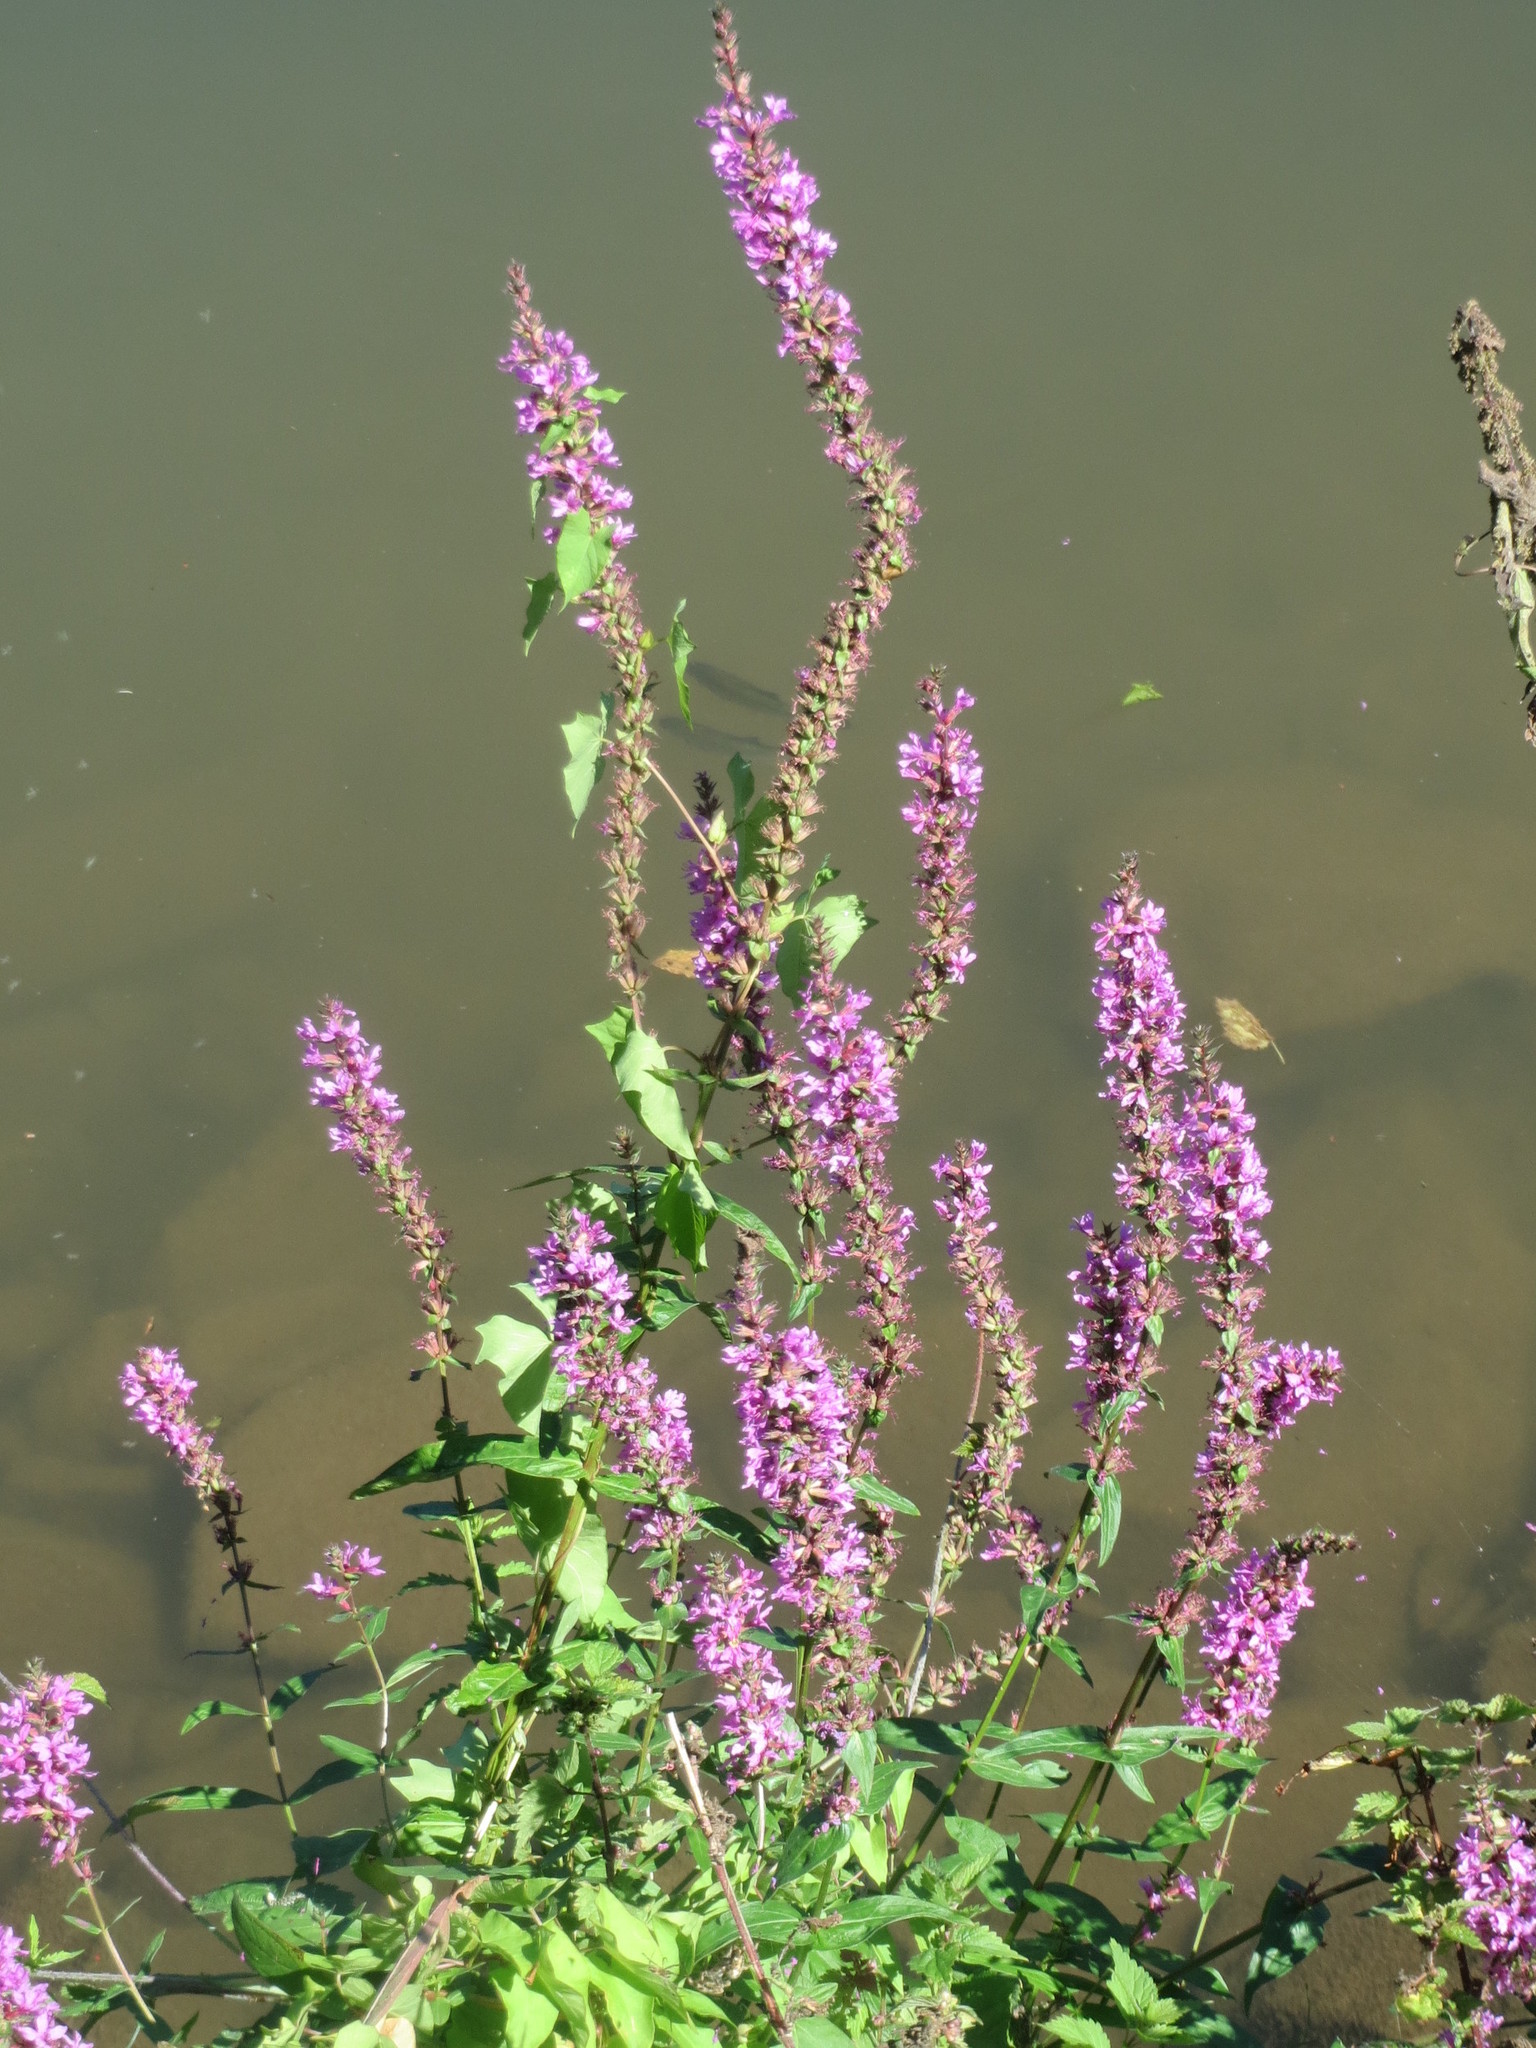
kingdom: Plantae
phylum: Tracheophyta
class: Magnoliopsida
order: Myrtales
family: Lythraceae
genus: Lythrum
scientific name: Lythrum salicaria
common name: Purple loosestrife
